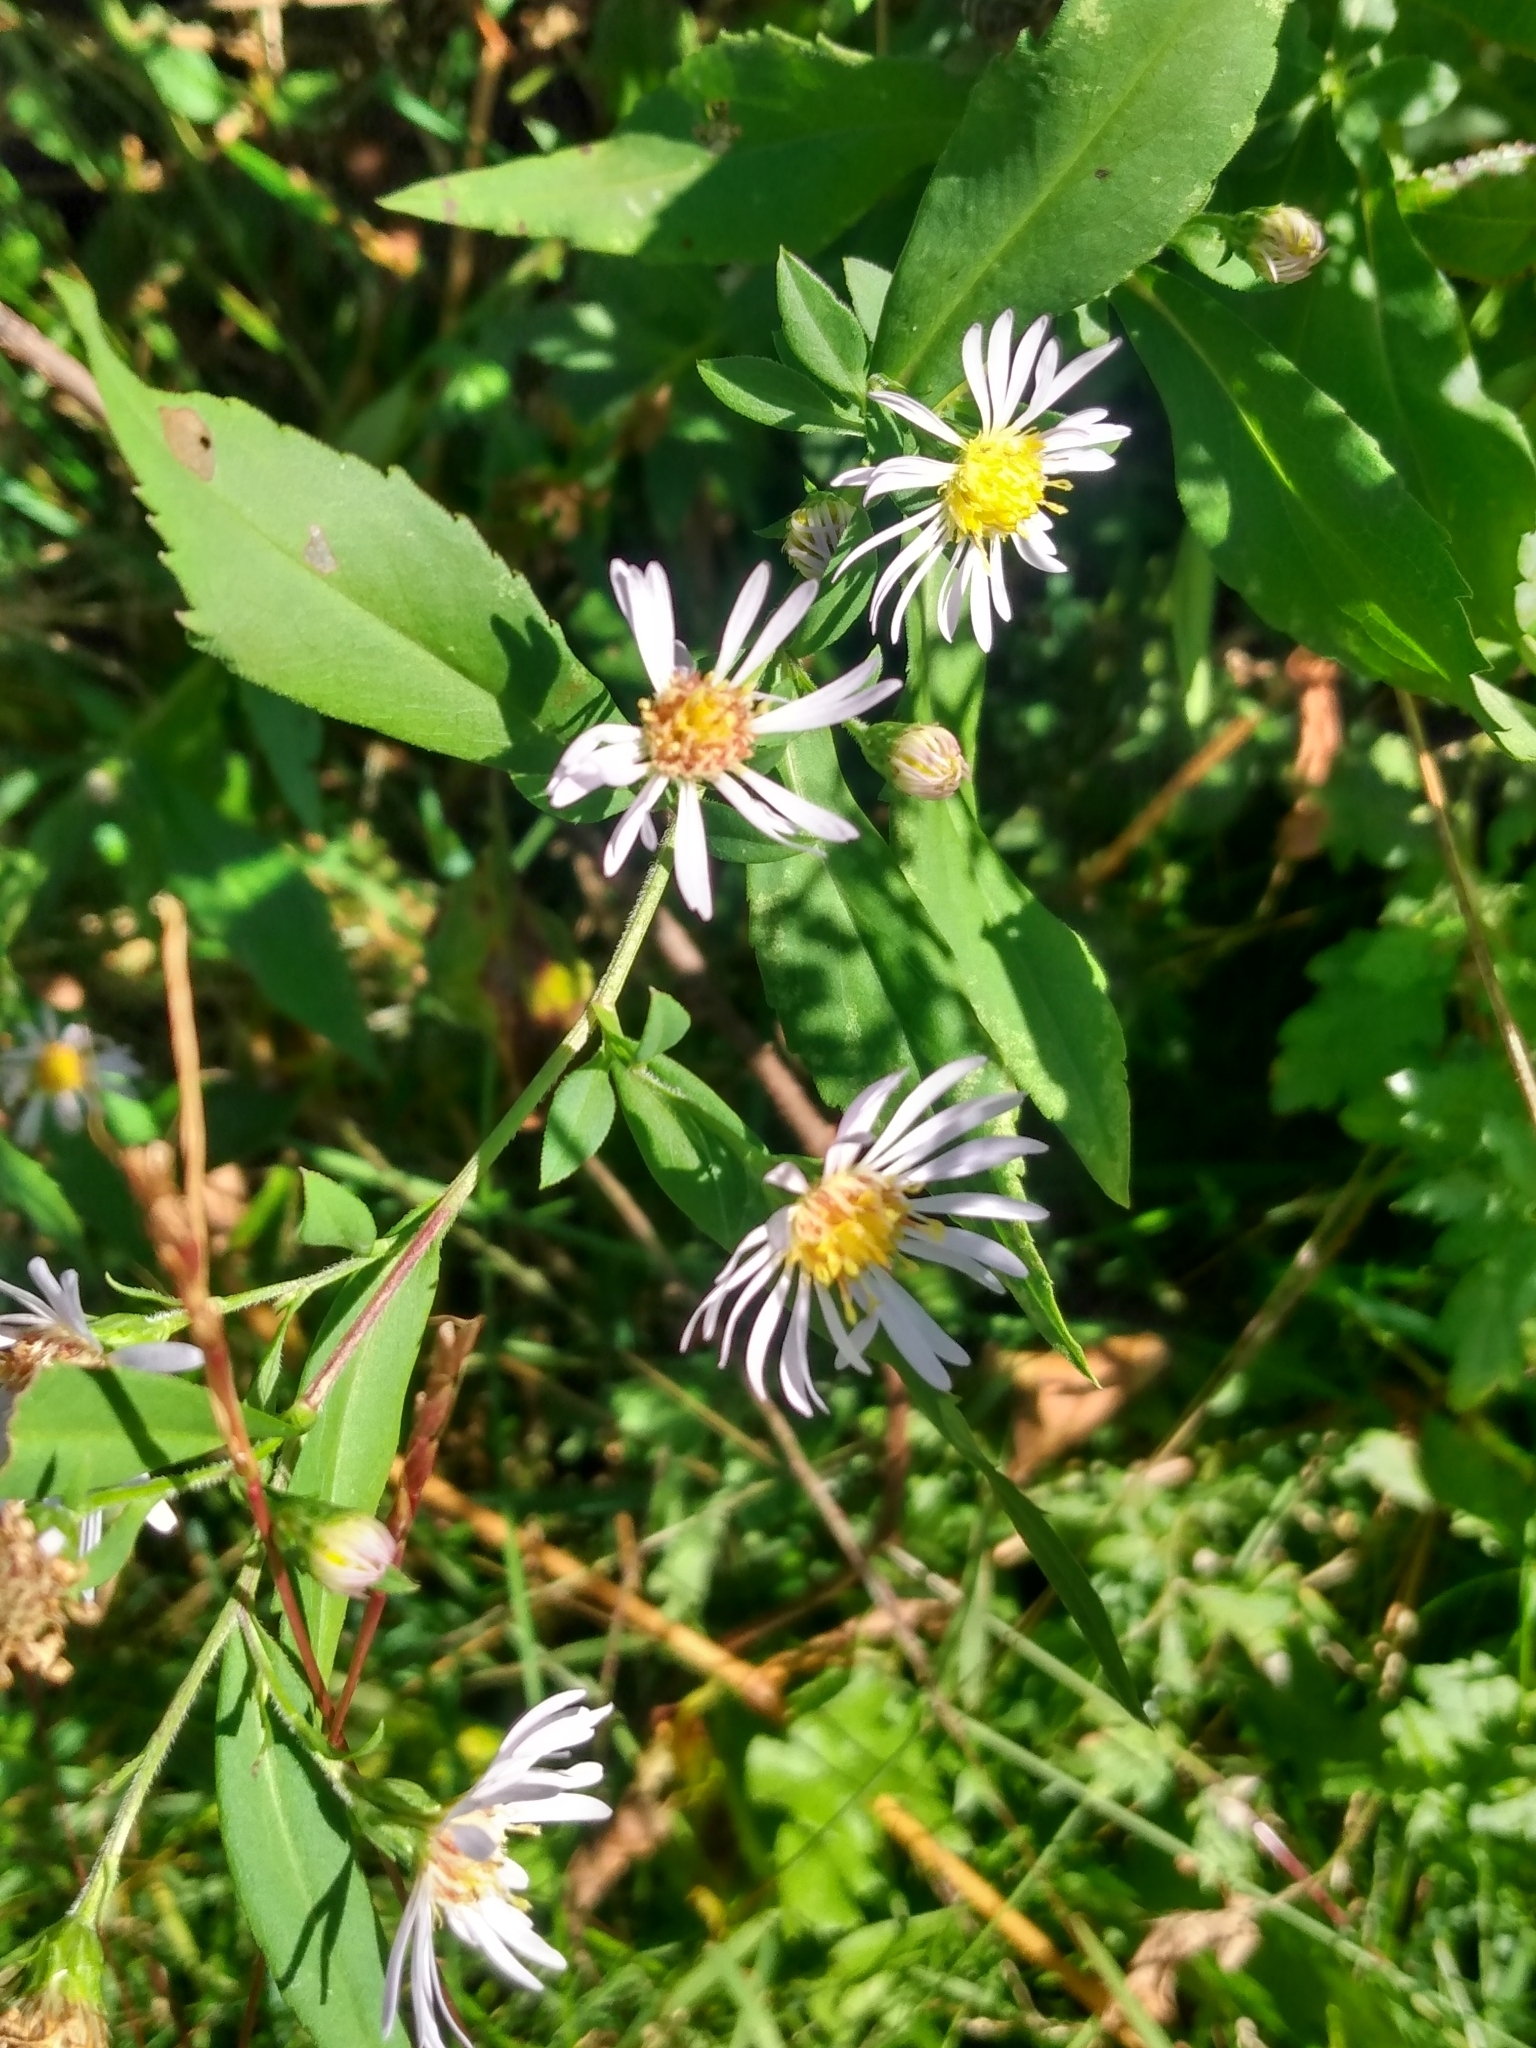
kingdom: Plantae
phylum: Tracheophyta
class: Magnoliopsida
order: Asterales
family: Asteraceae
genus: Symphyotrichum
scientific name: Symphyotrichum novi-belgii
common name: Michaelmas daisy
